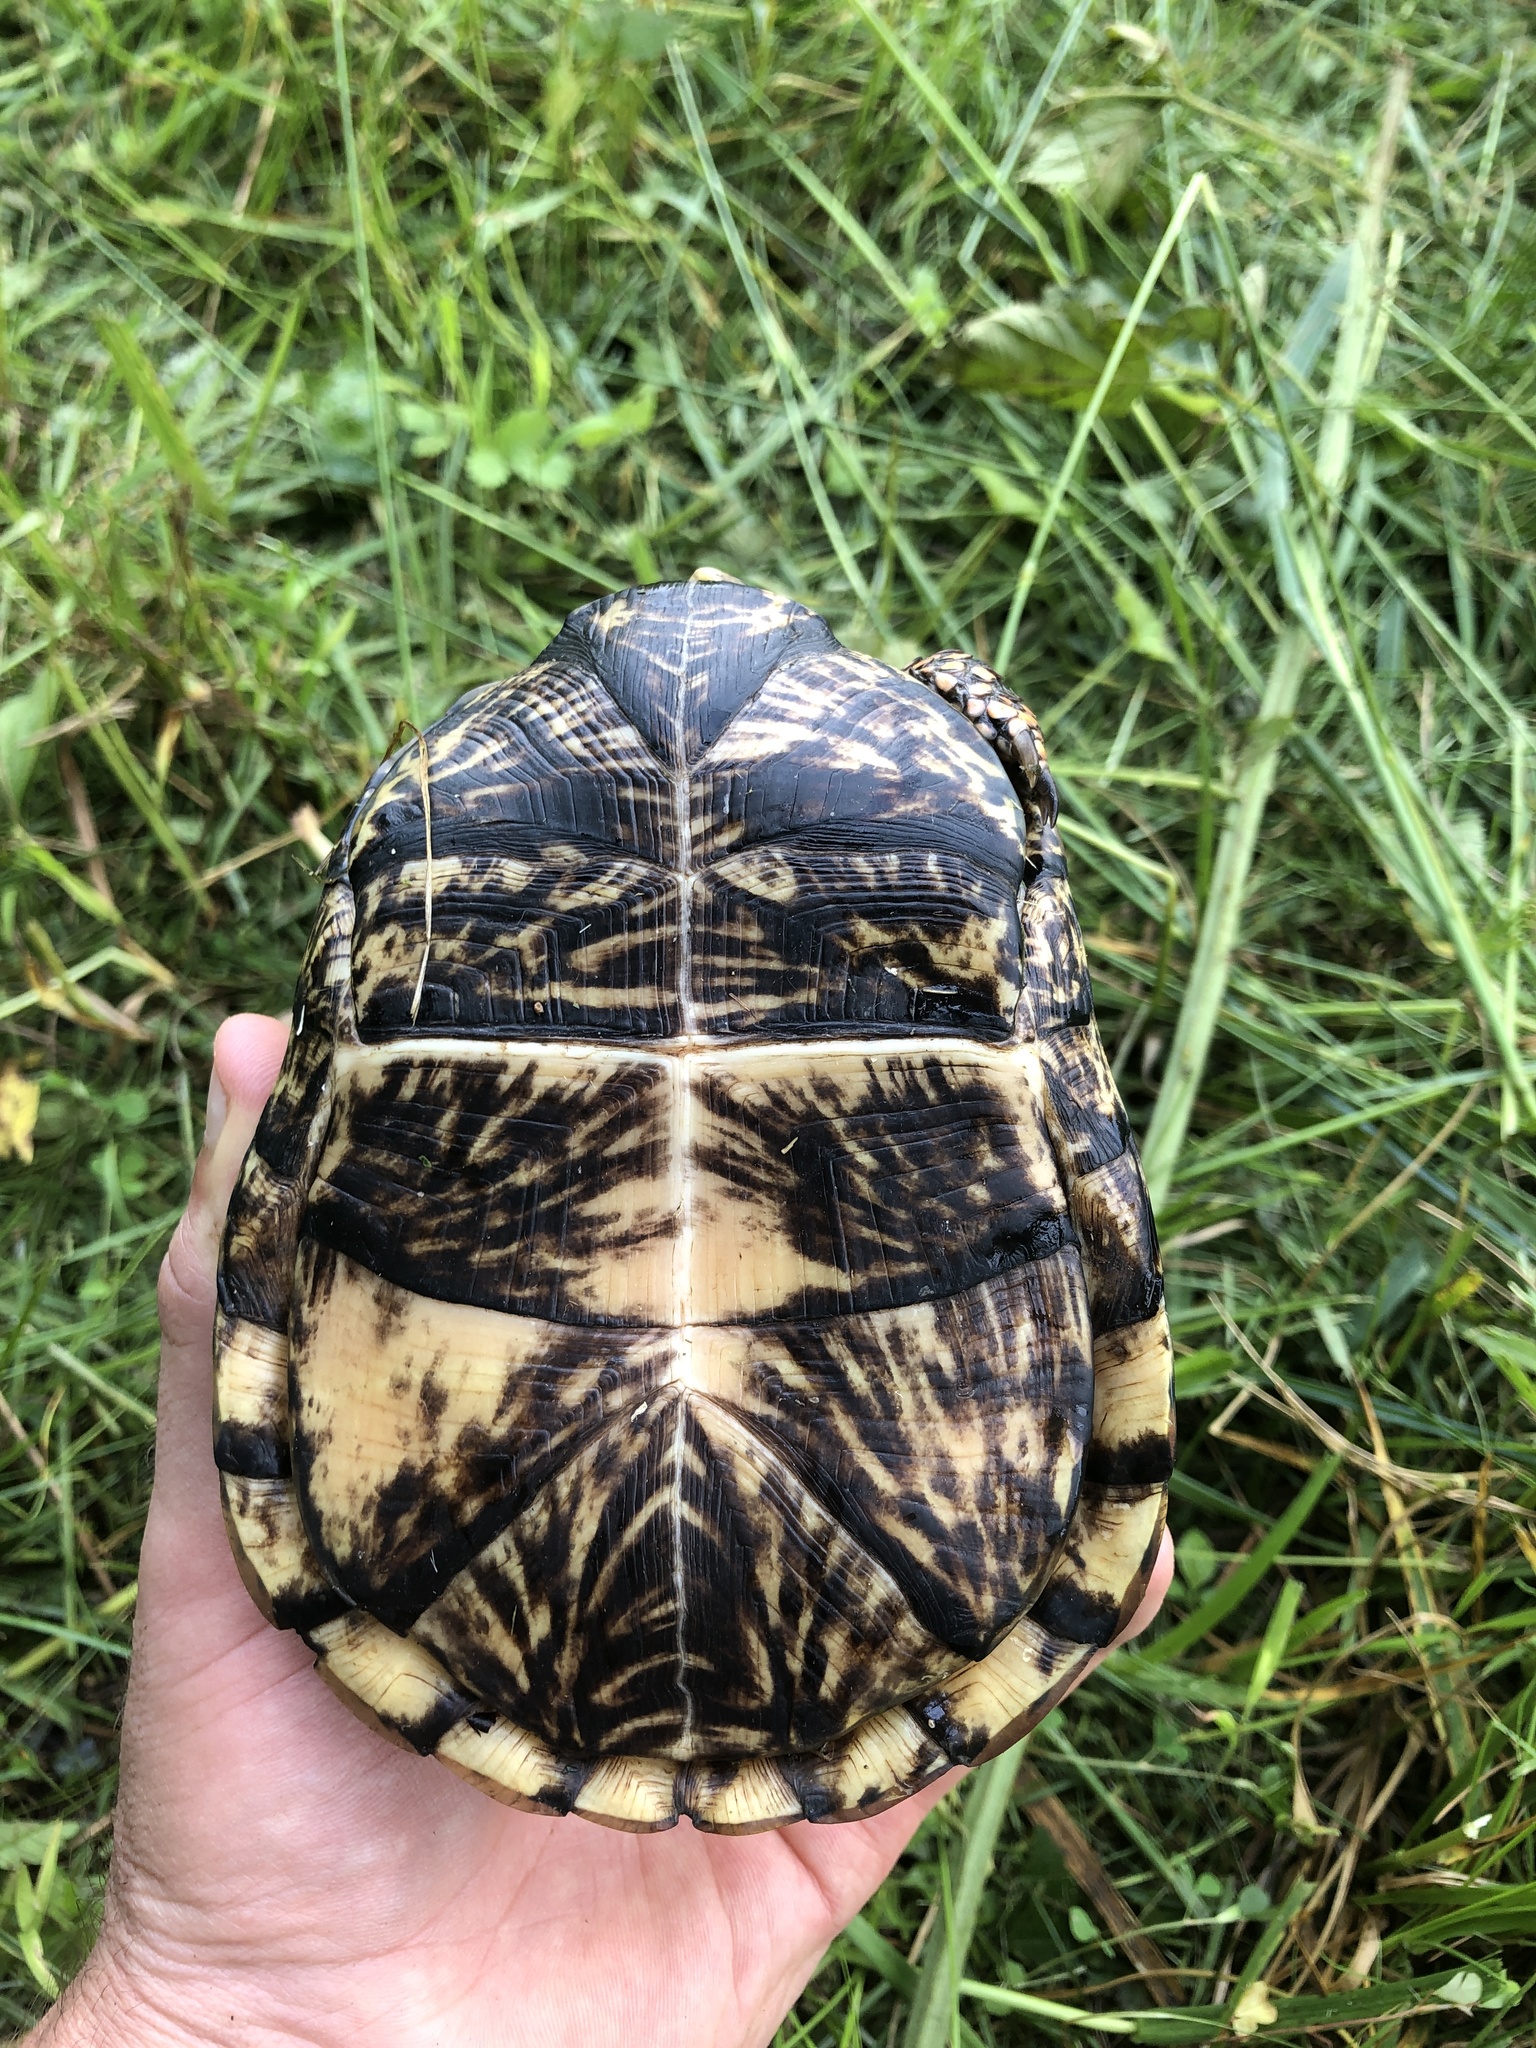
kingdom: Animalia
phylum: Chordata
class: Testudines
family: Emydidae
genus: Terrapene
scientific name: Terrapene carolina
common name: Common box turtle
